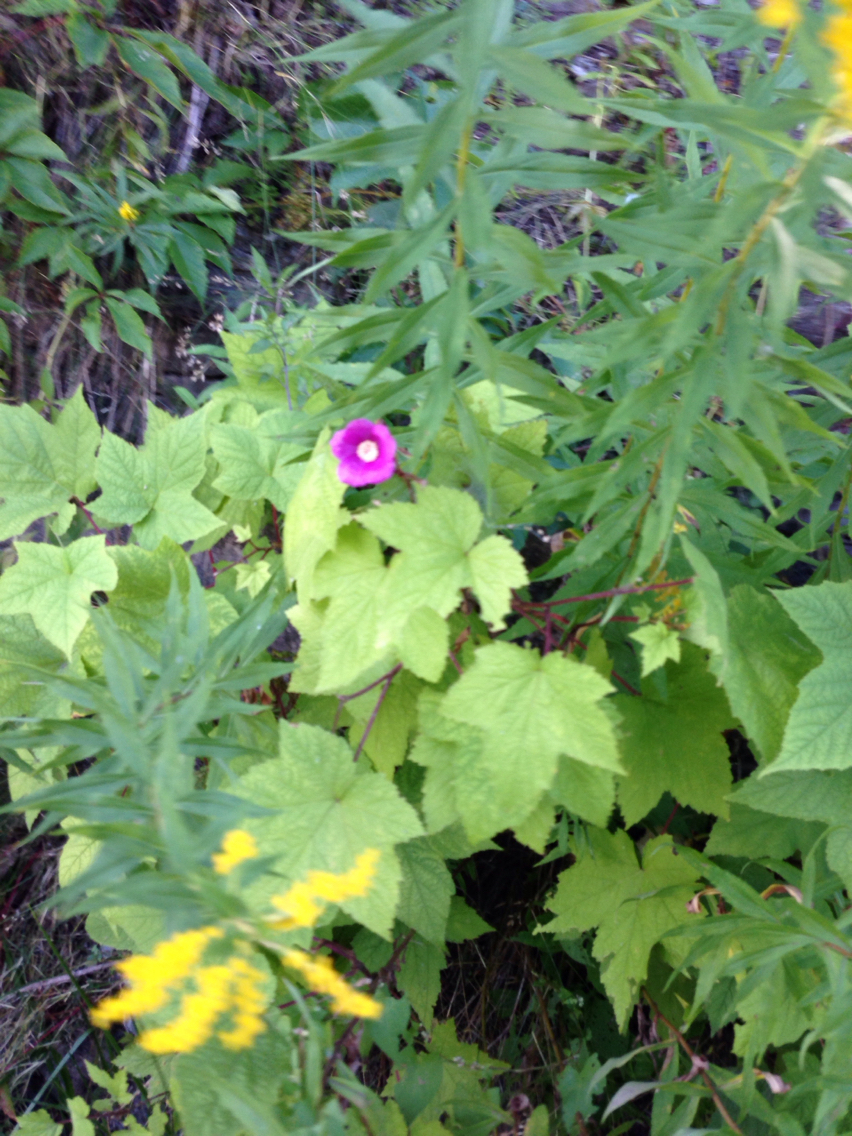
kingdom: Plantae
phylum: Tracheophyta
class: Magnoliopsida
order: Rosales
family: Rosaceae
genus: Rubus
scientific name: Rubus odoratus
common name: Purple-flowered raspberry
